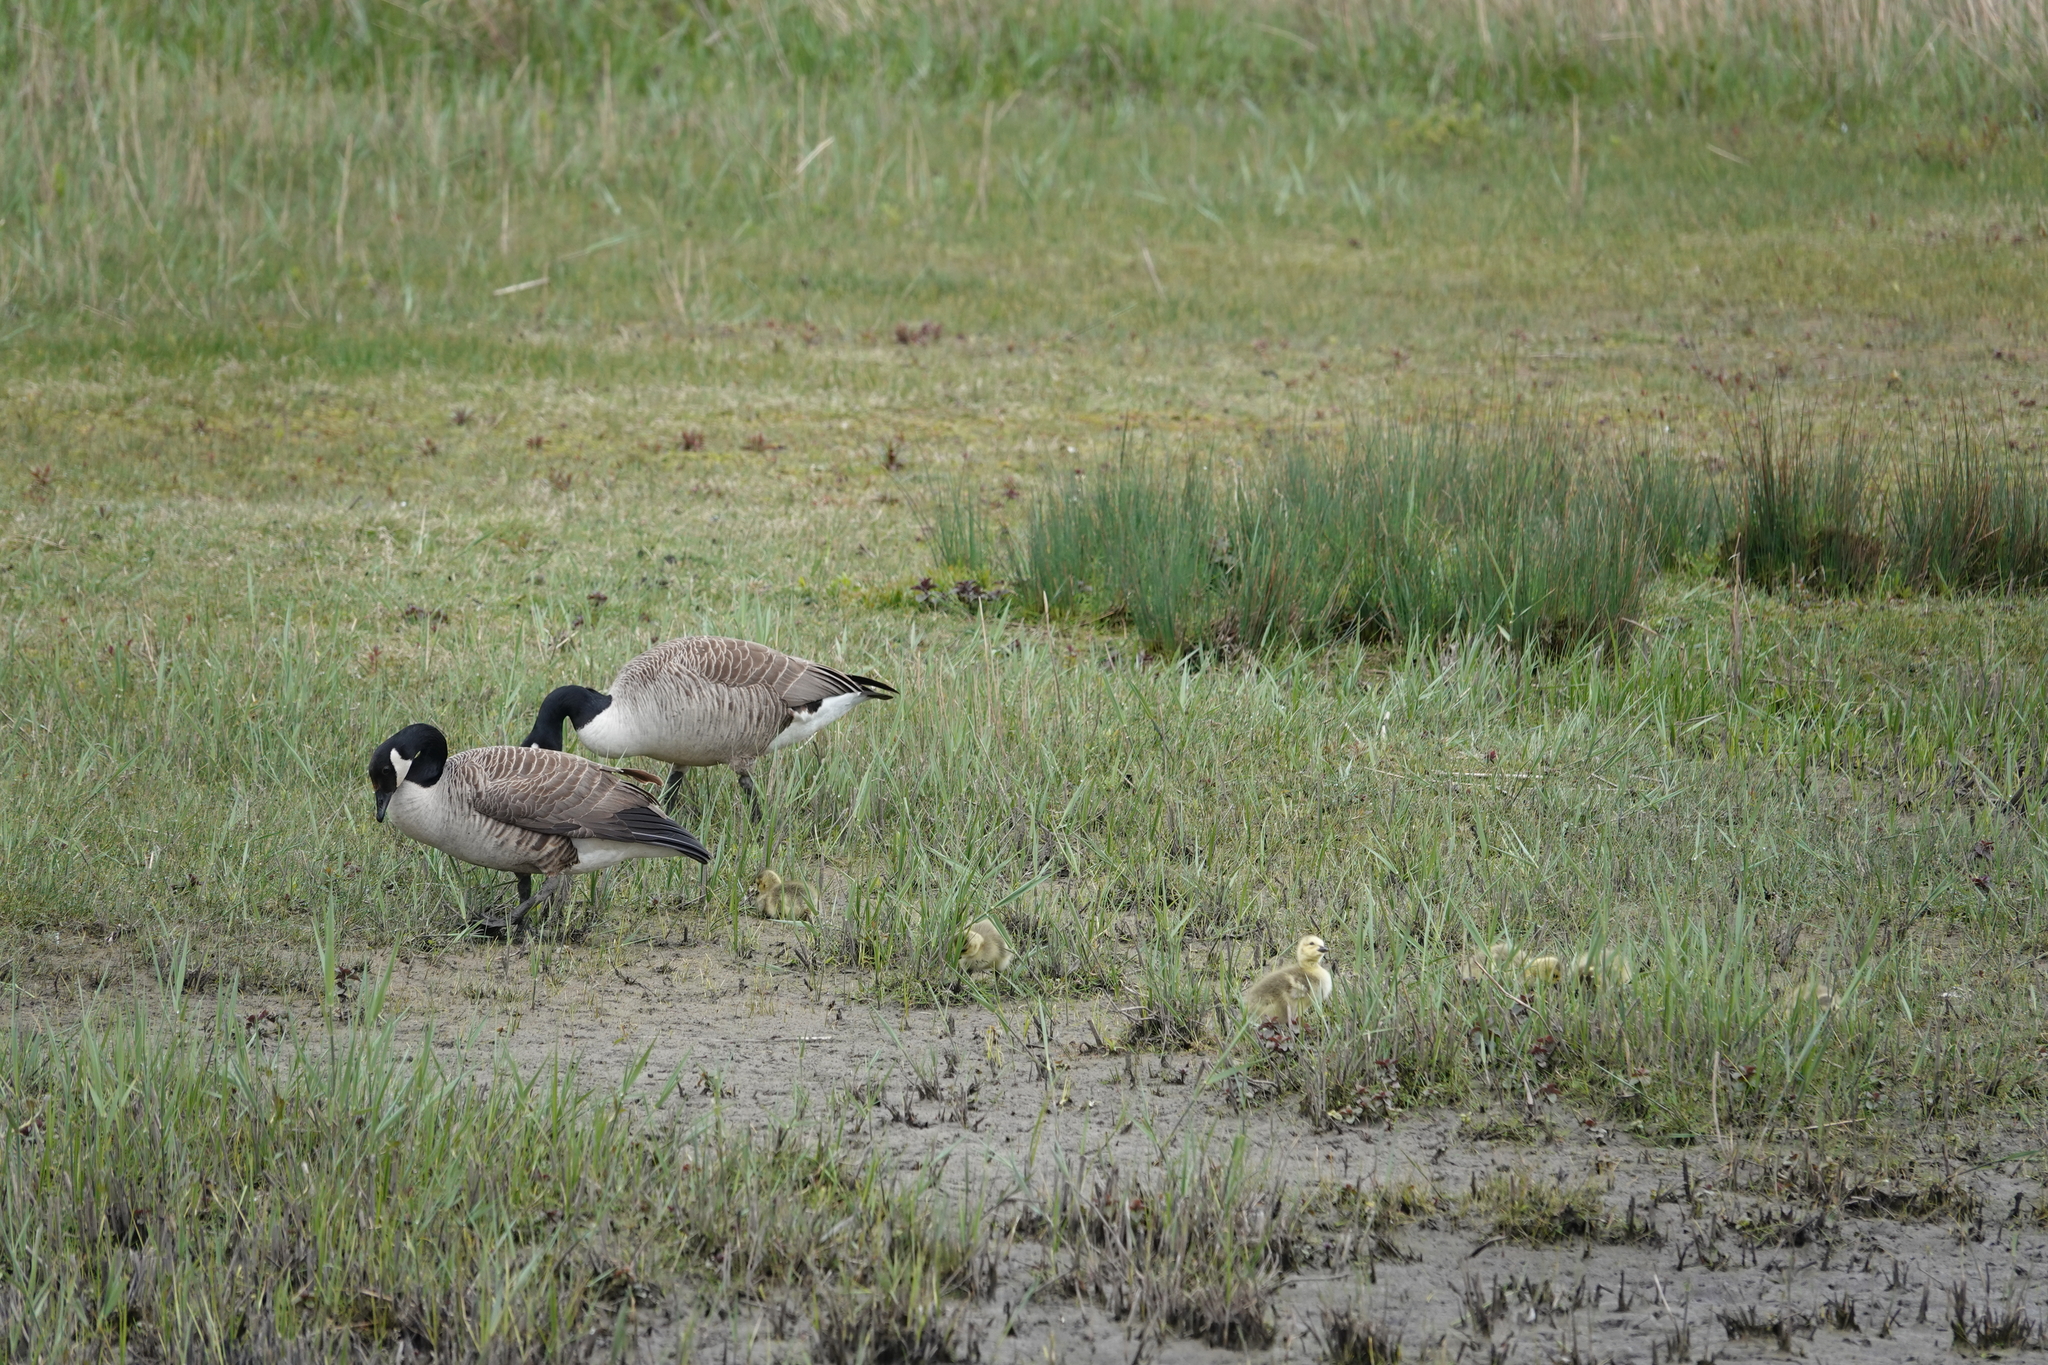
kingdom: Animalia
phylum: Chordata
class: Aves
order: Anseriformes
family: Anatidae
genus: Branta
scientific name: Branta canadensis
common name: Canada goose
